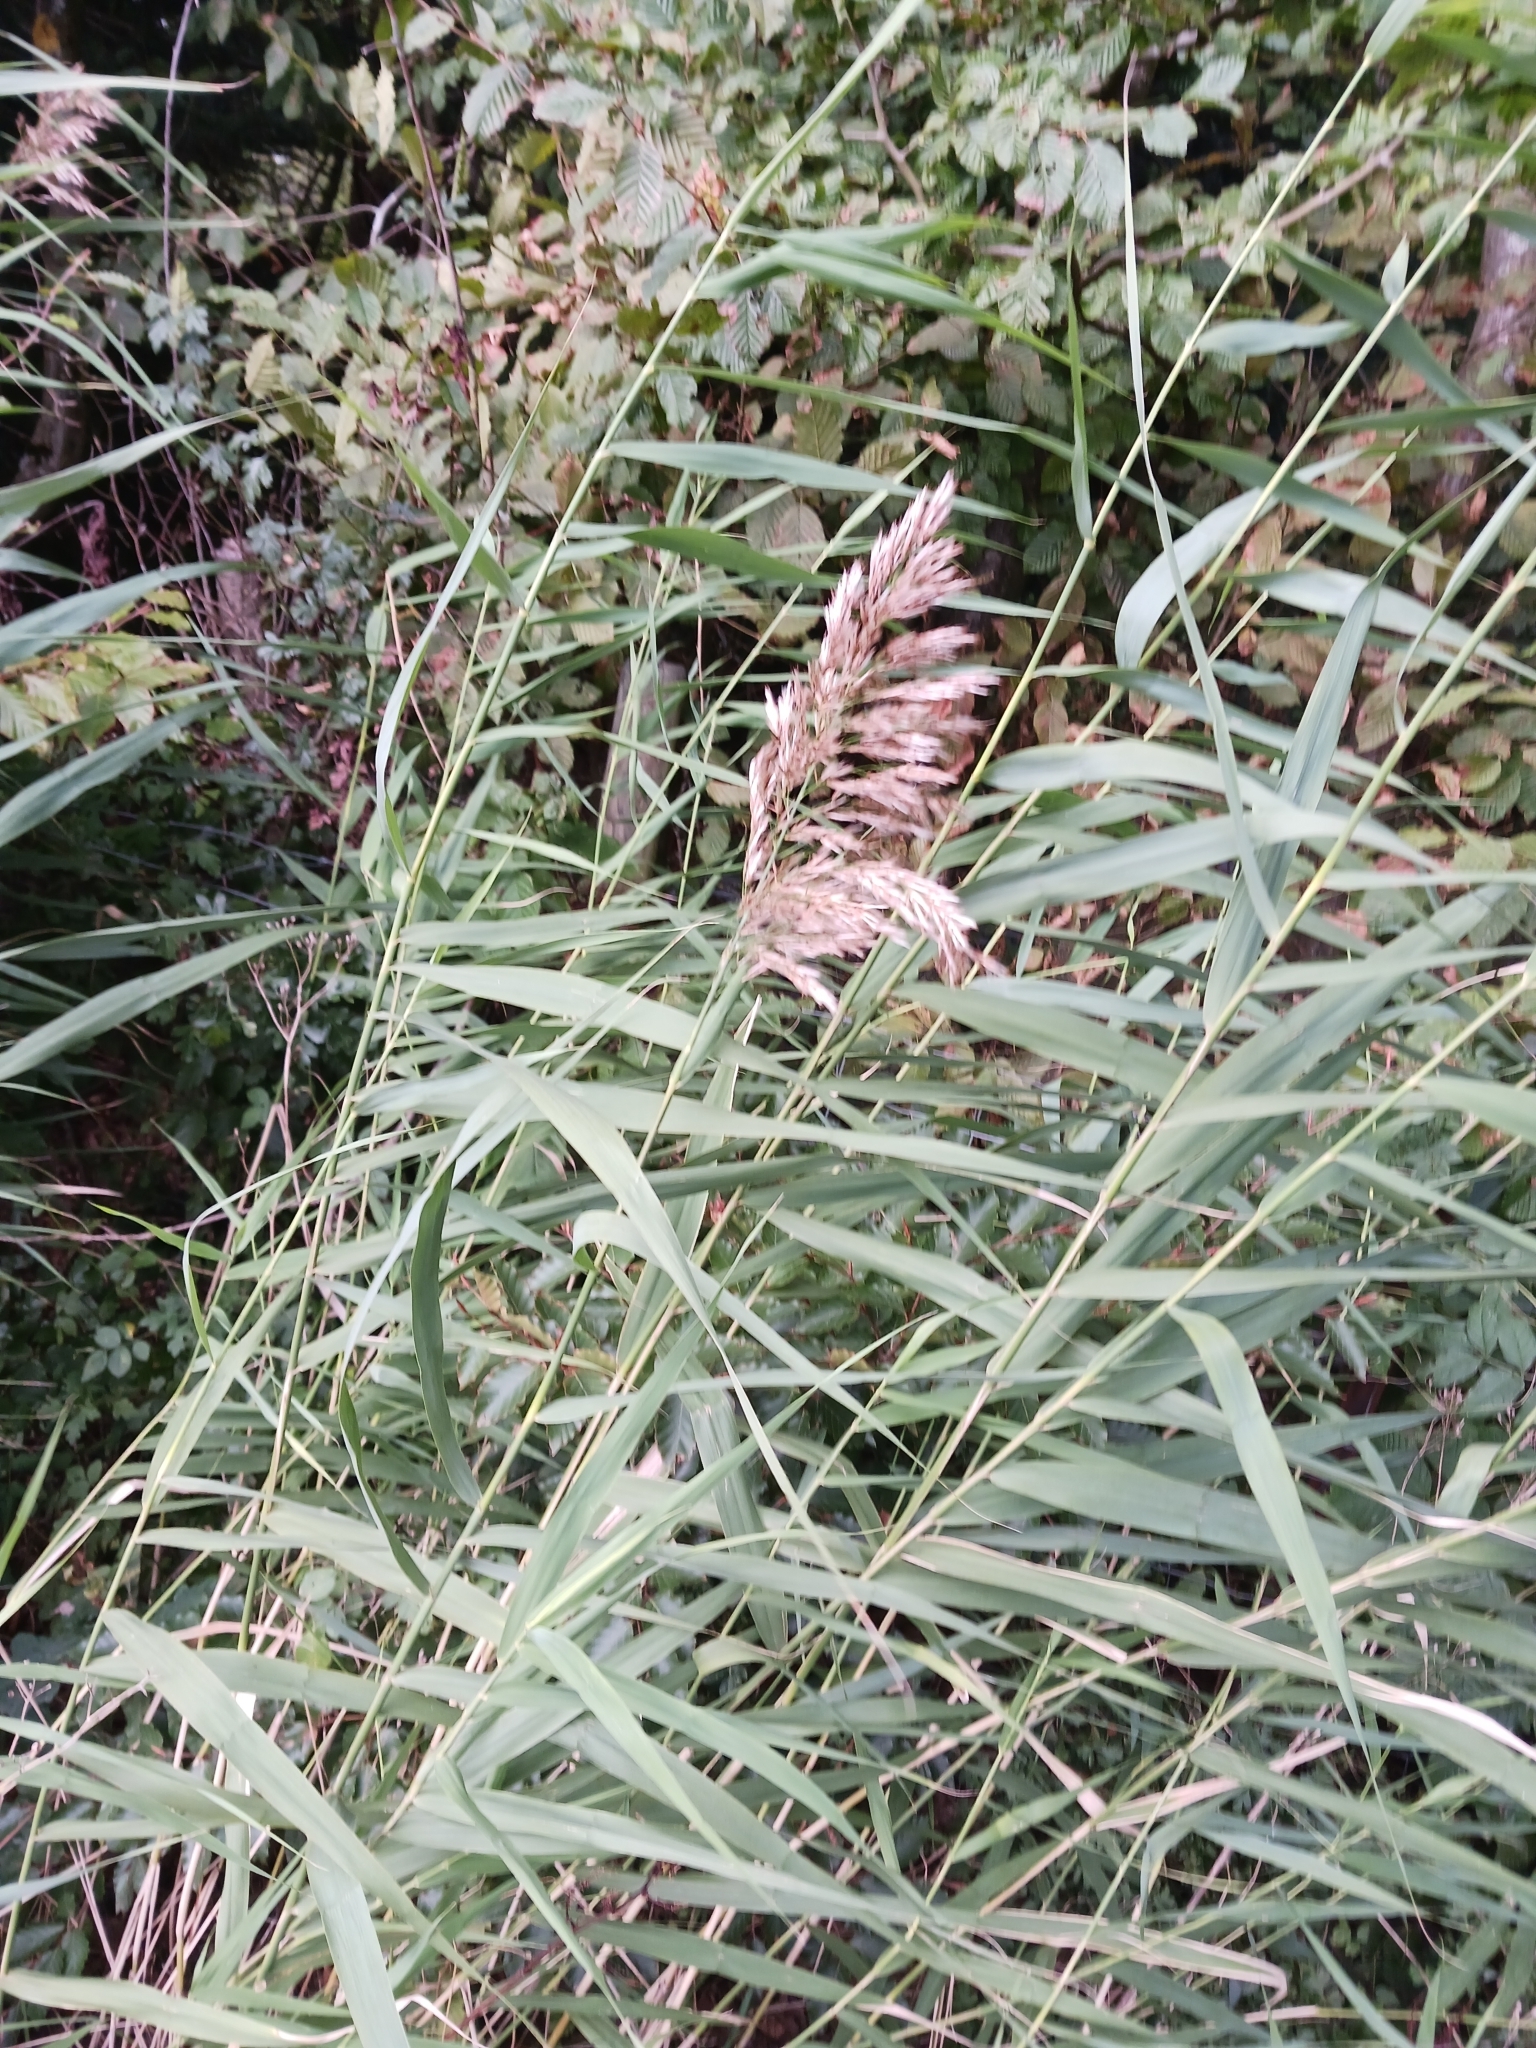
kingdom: Plantae
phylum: Tracheophyta
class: Liliopsida
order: Poales
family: Poaceae
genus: Phragmites
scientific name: Phragmites australis
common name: Common reed
